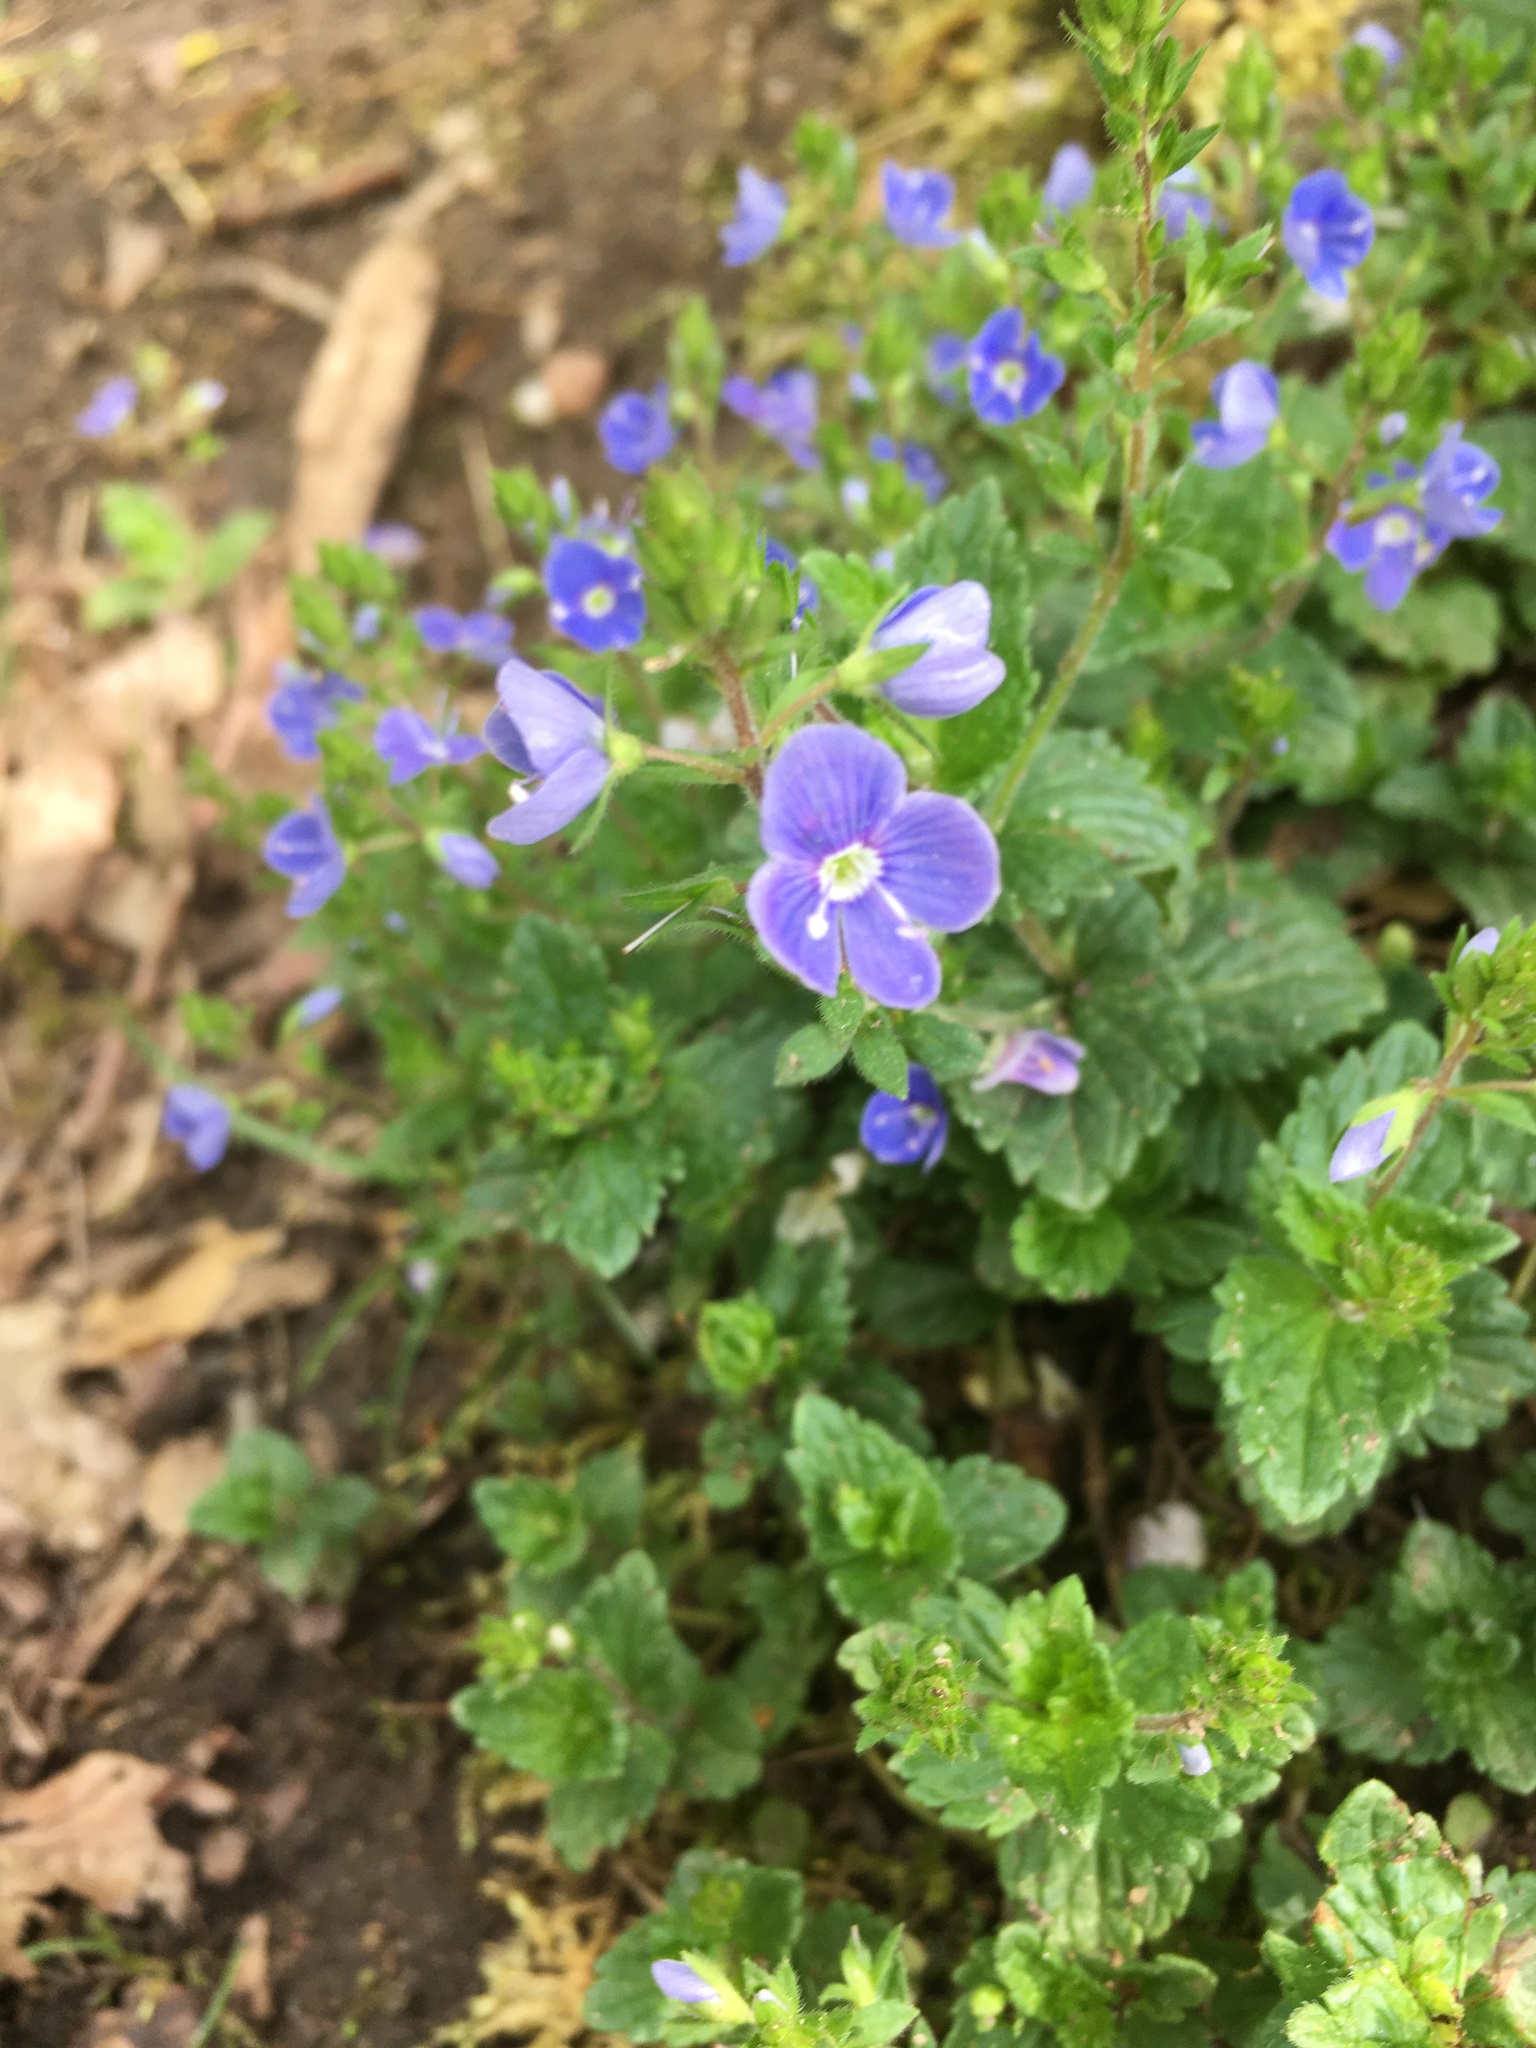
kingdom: Plantae
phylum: Tracheophyta
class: Magnoliopsida
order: Lamiales
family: Plantaginaceae
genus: Veronica
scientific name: Veronica chamaedrys
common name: Germander speedwell
